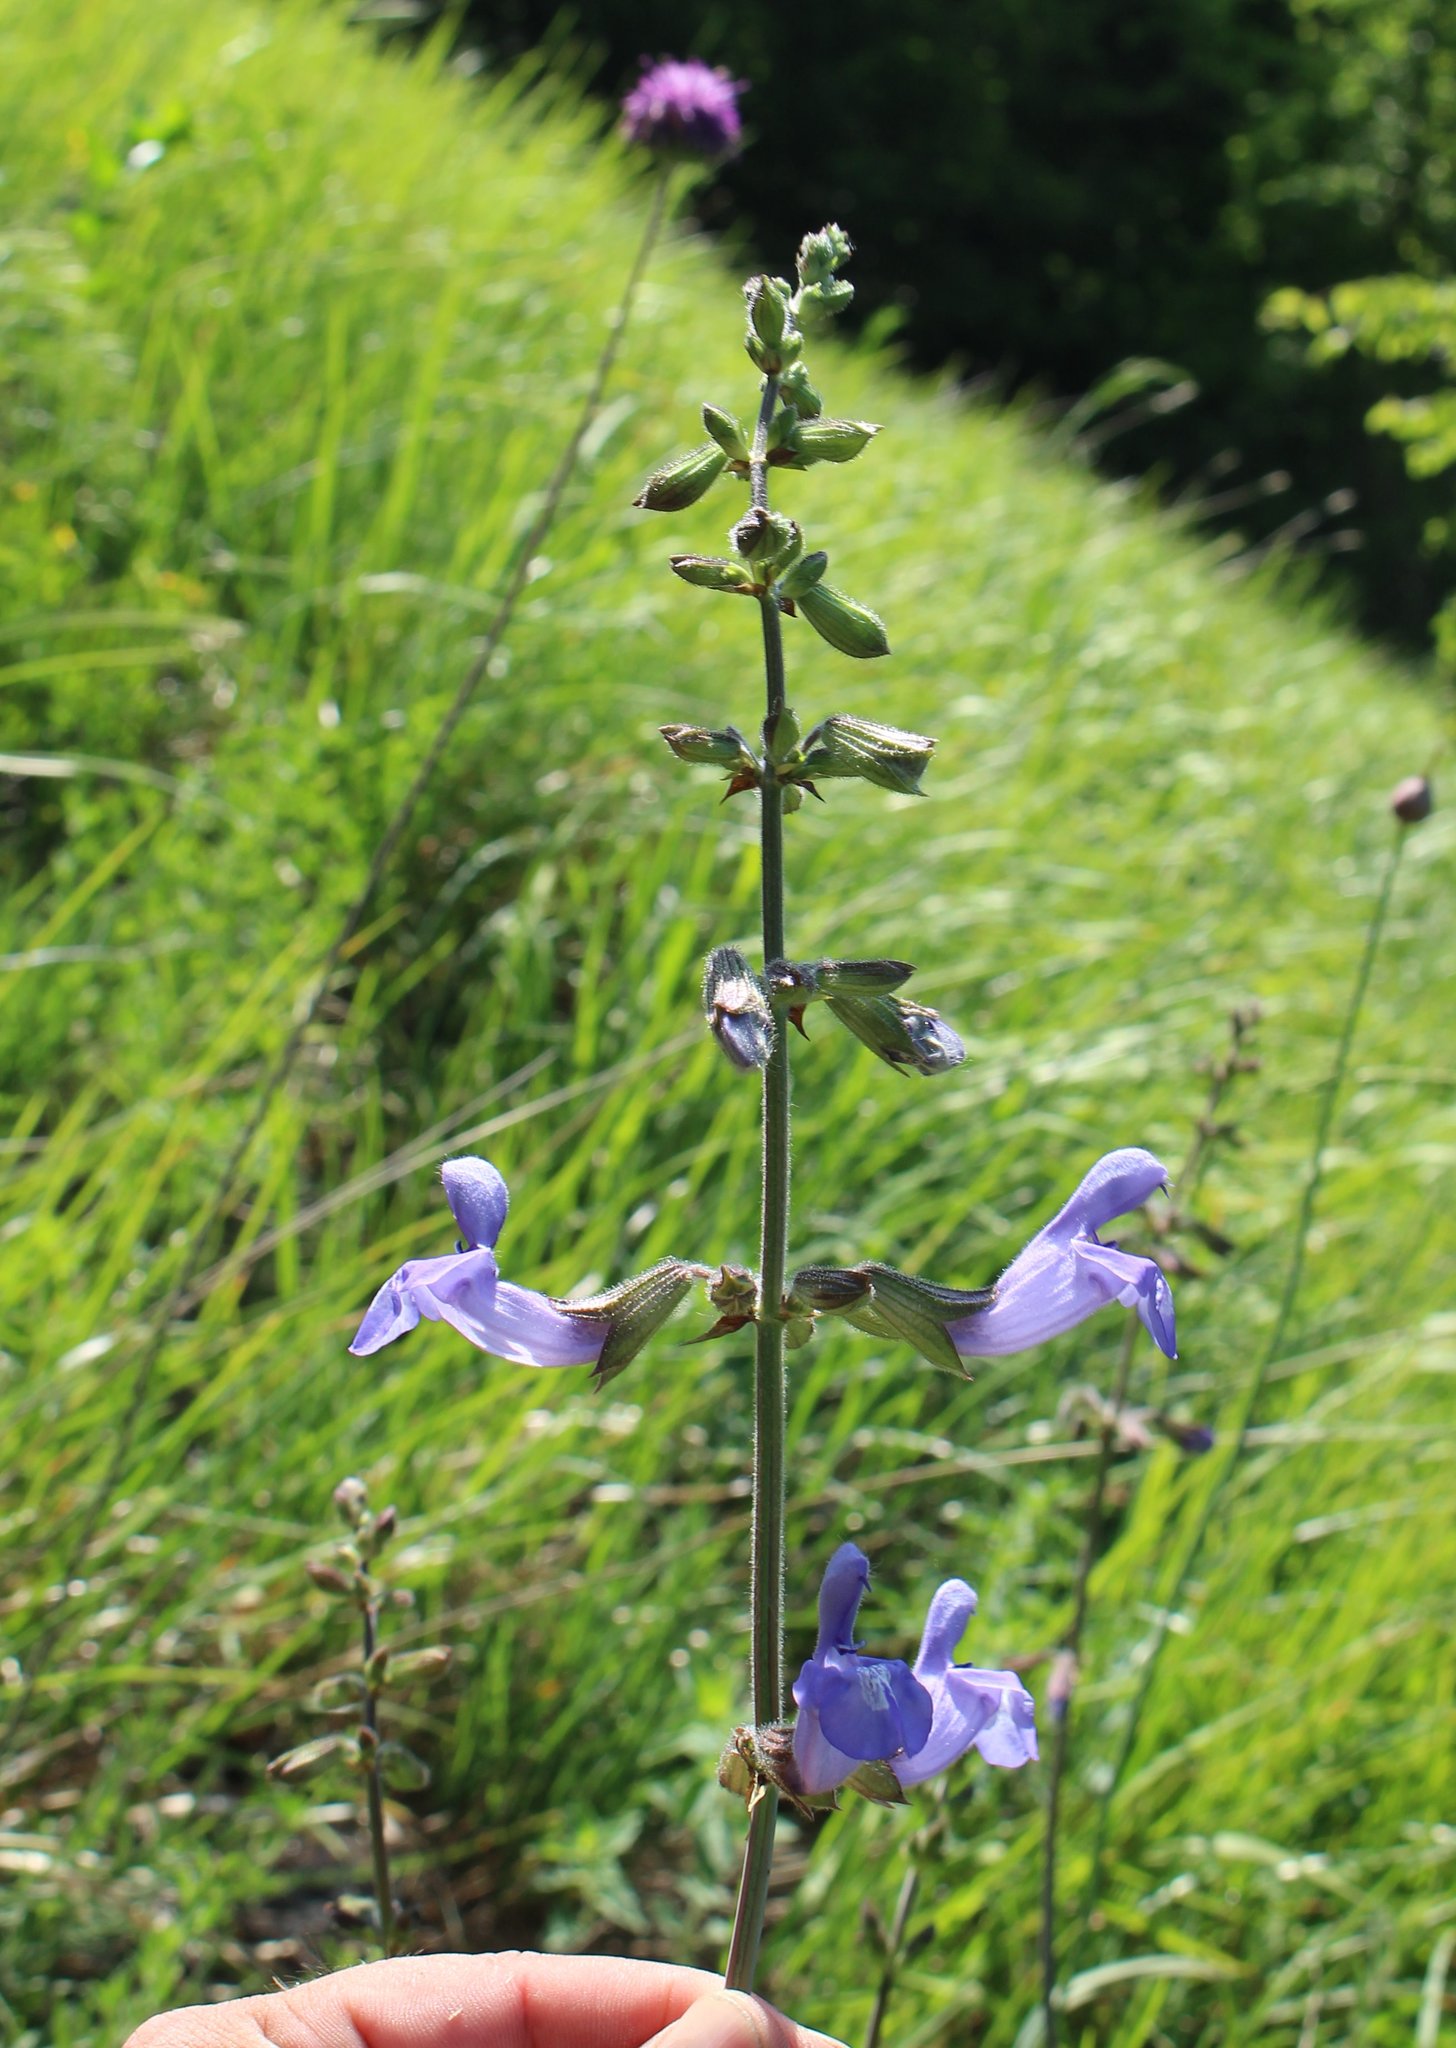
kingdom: Plantae
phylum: Tracheophyta
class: Magnoliopsida
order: Lamiales
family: Lamiaceae
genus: Salvia
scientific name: Salvia ringens
